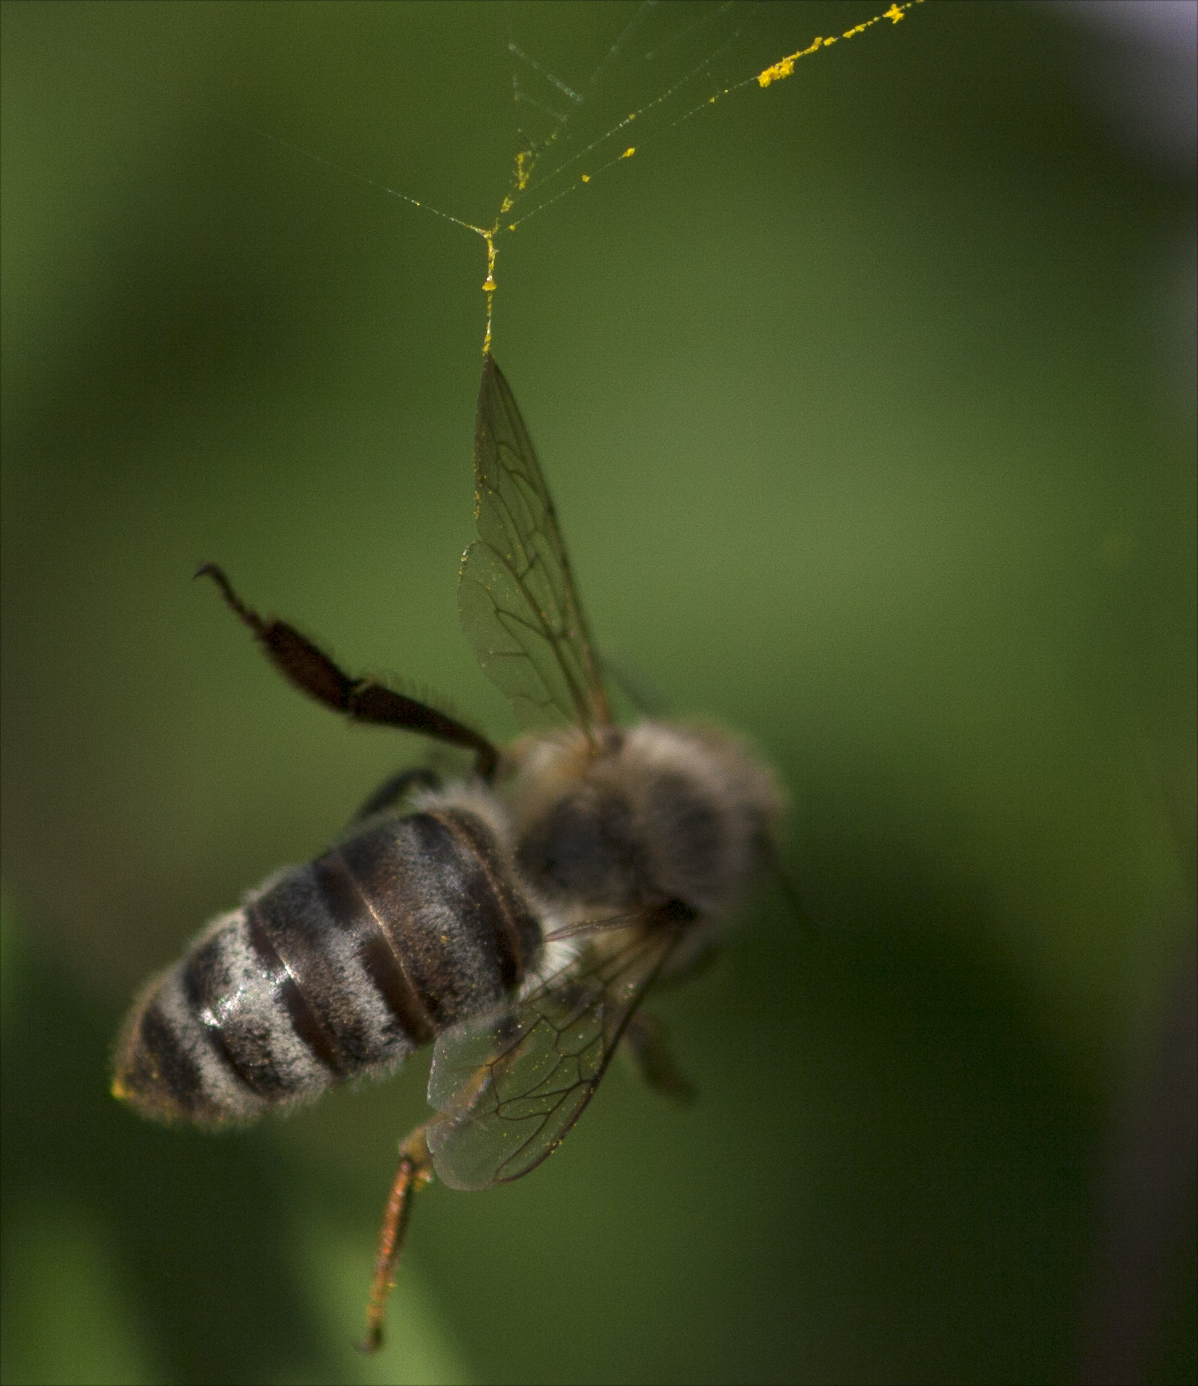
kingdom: Animalia
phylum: Arthropoda
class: Insecta
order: Hymenoptera
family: Apidae
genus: Apis
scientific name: Apis mellifera
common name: Honey bee
